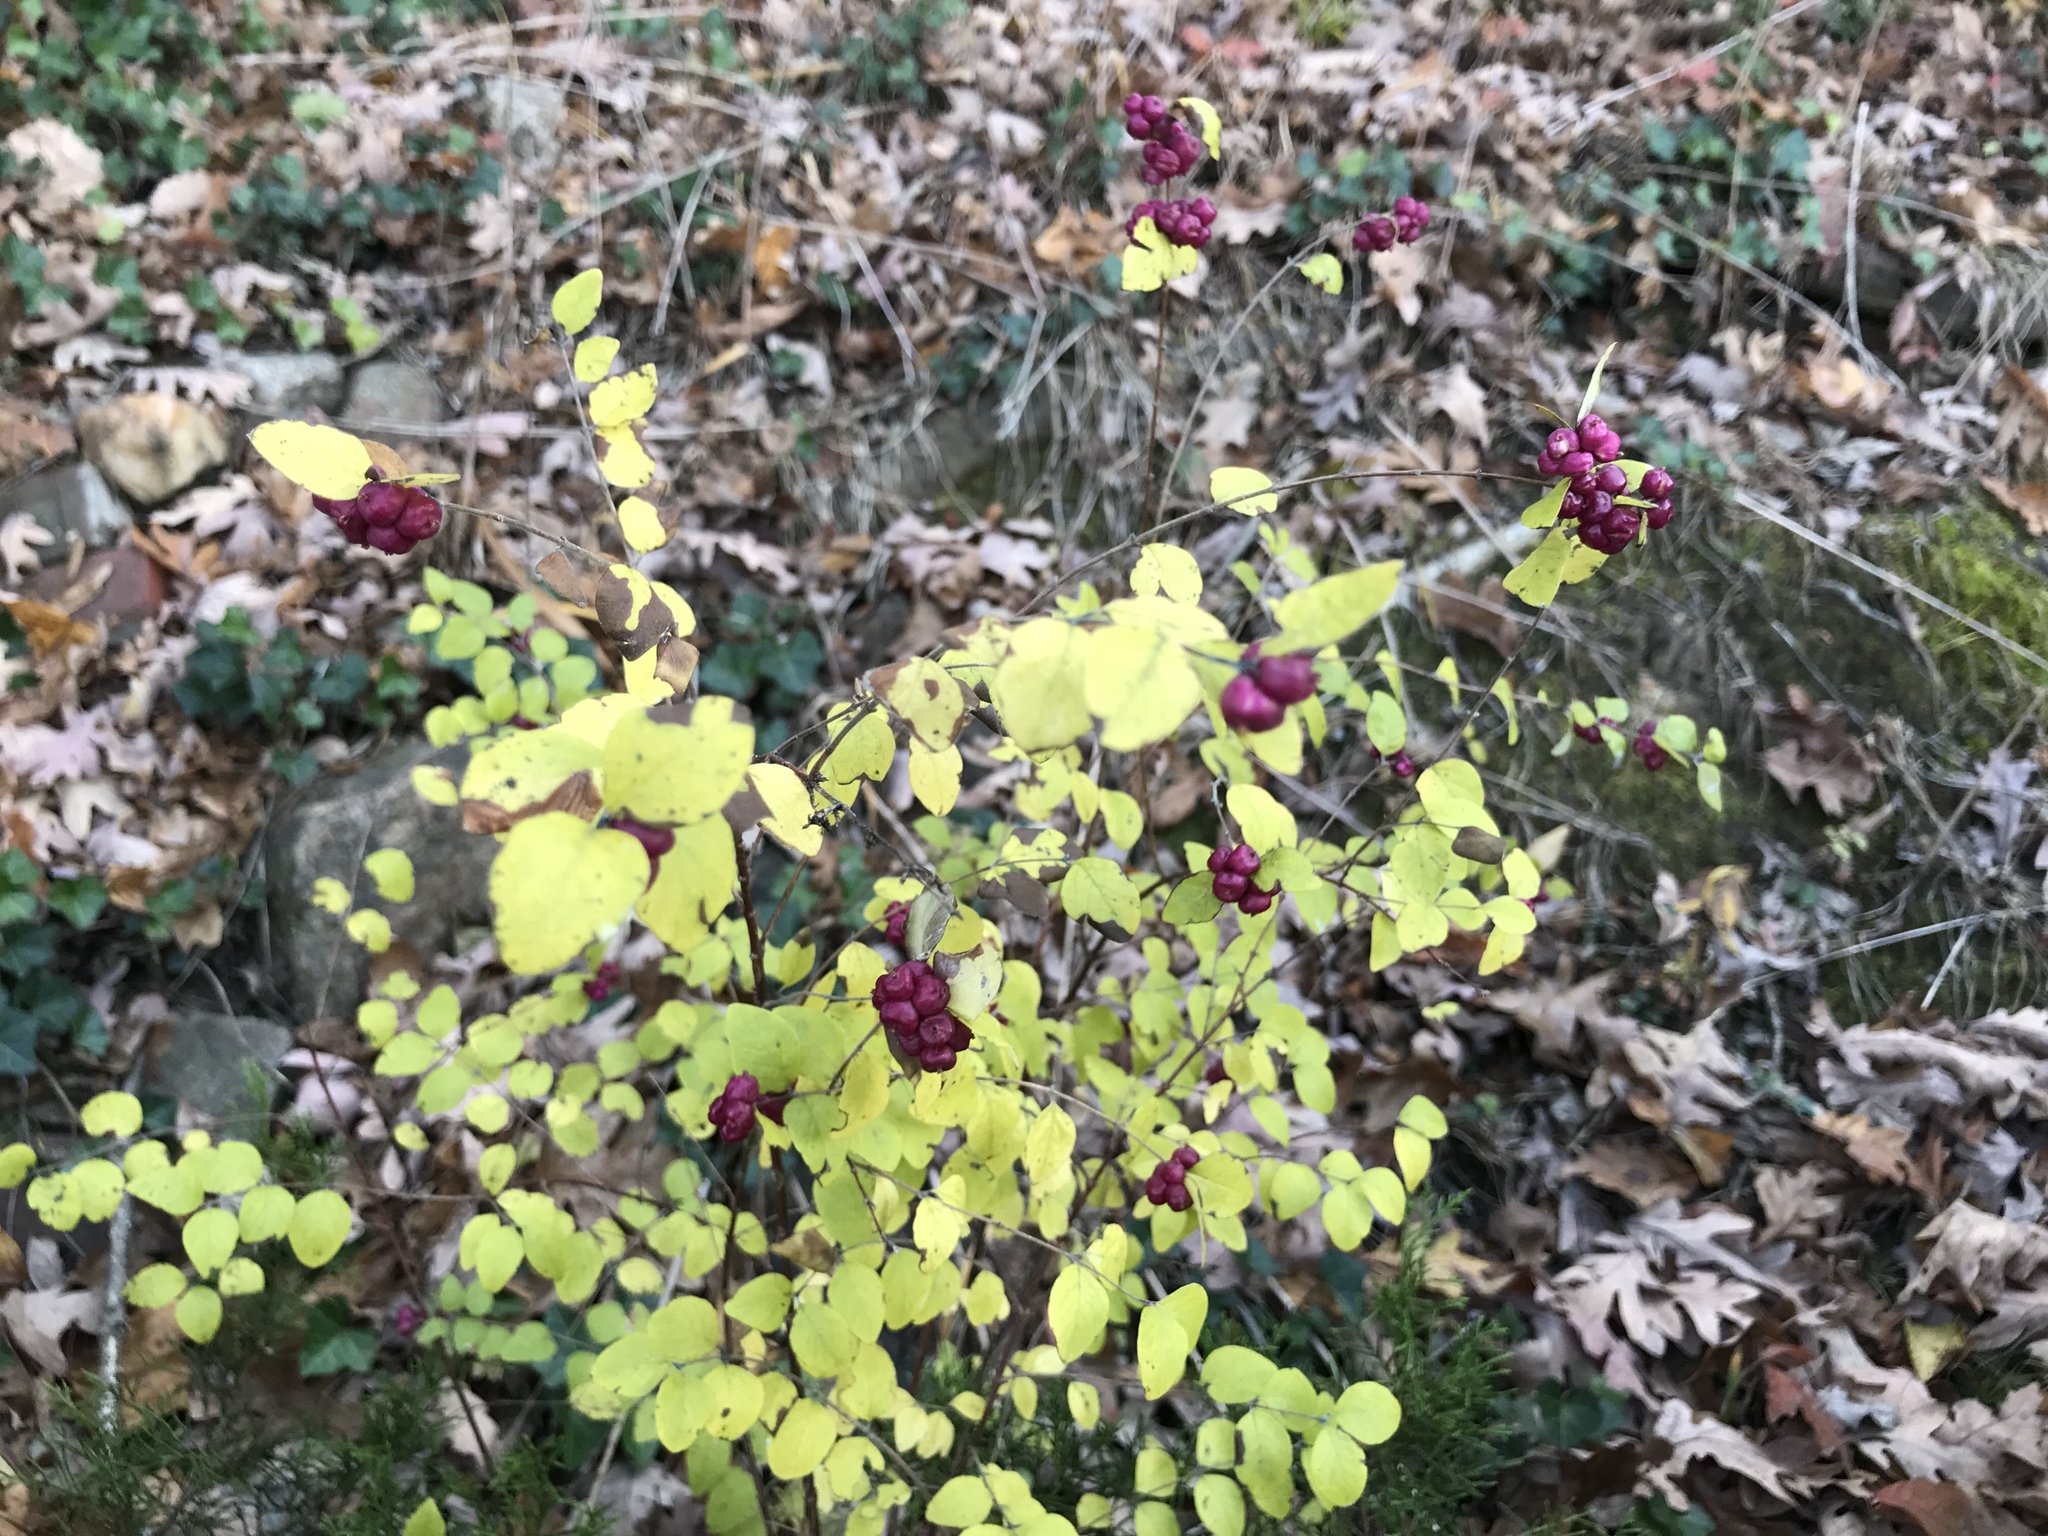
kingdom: Plantae
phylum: Tracheophyta
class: Magnoliopsida
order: Dipsacales
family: Caprifoliaceae
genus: Symphoricarpos
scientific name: Symphoricarpos orbiculatus
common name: Coralberry
